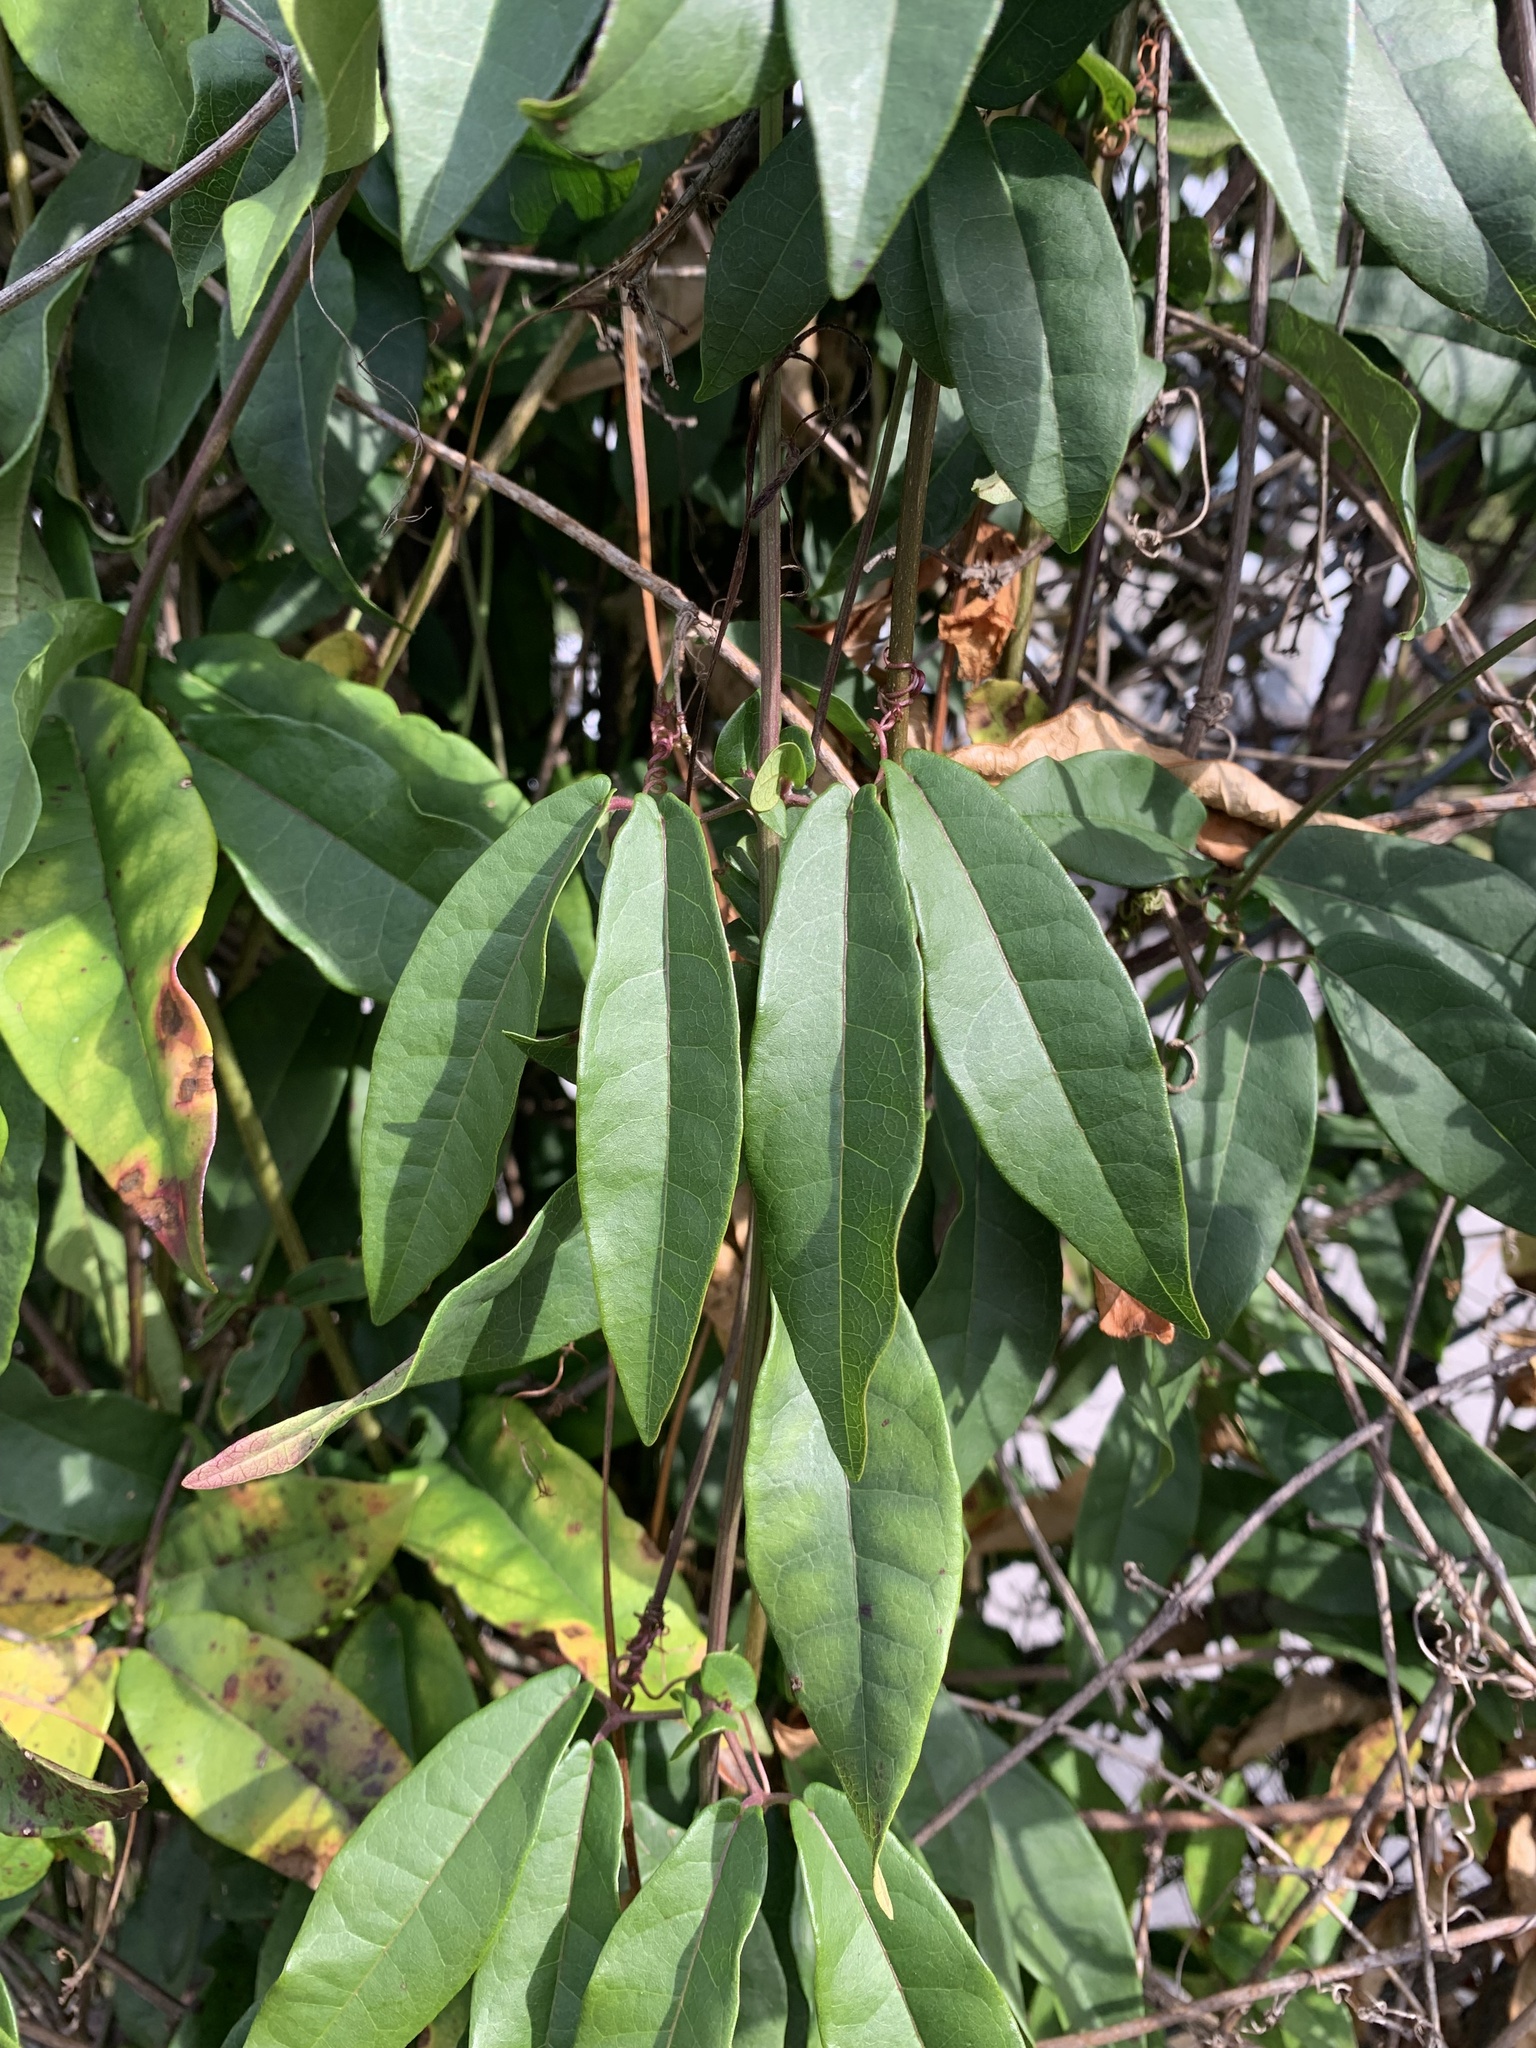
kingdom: Plantae
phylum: Tracheophyta
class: Magnoliopsida
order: Lamiales
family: Bignoniaceae
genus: Bignonia
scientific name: Bignonia capreolata
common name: Crossvine
